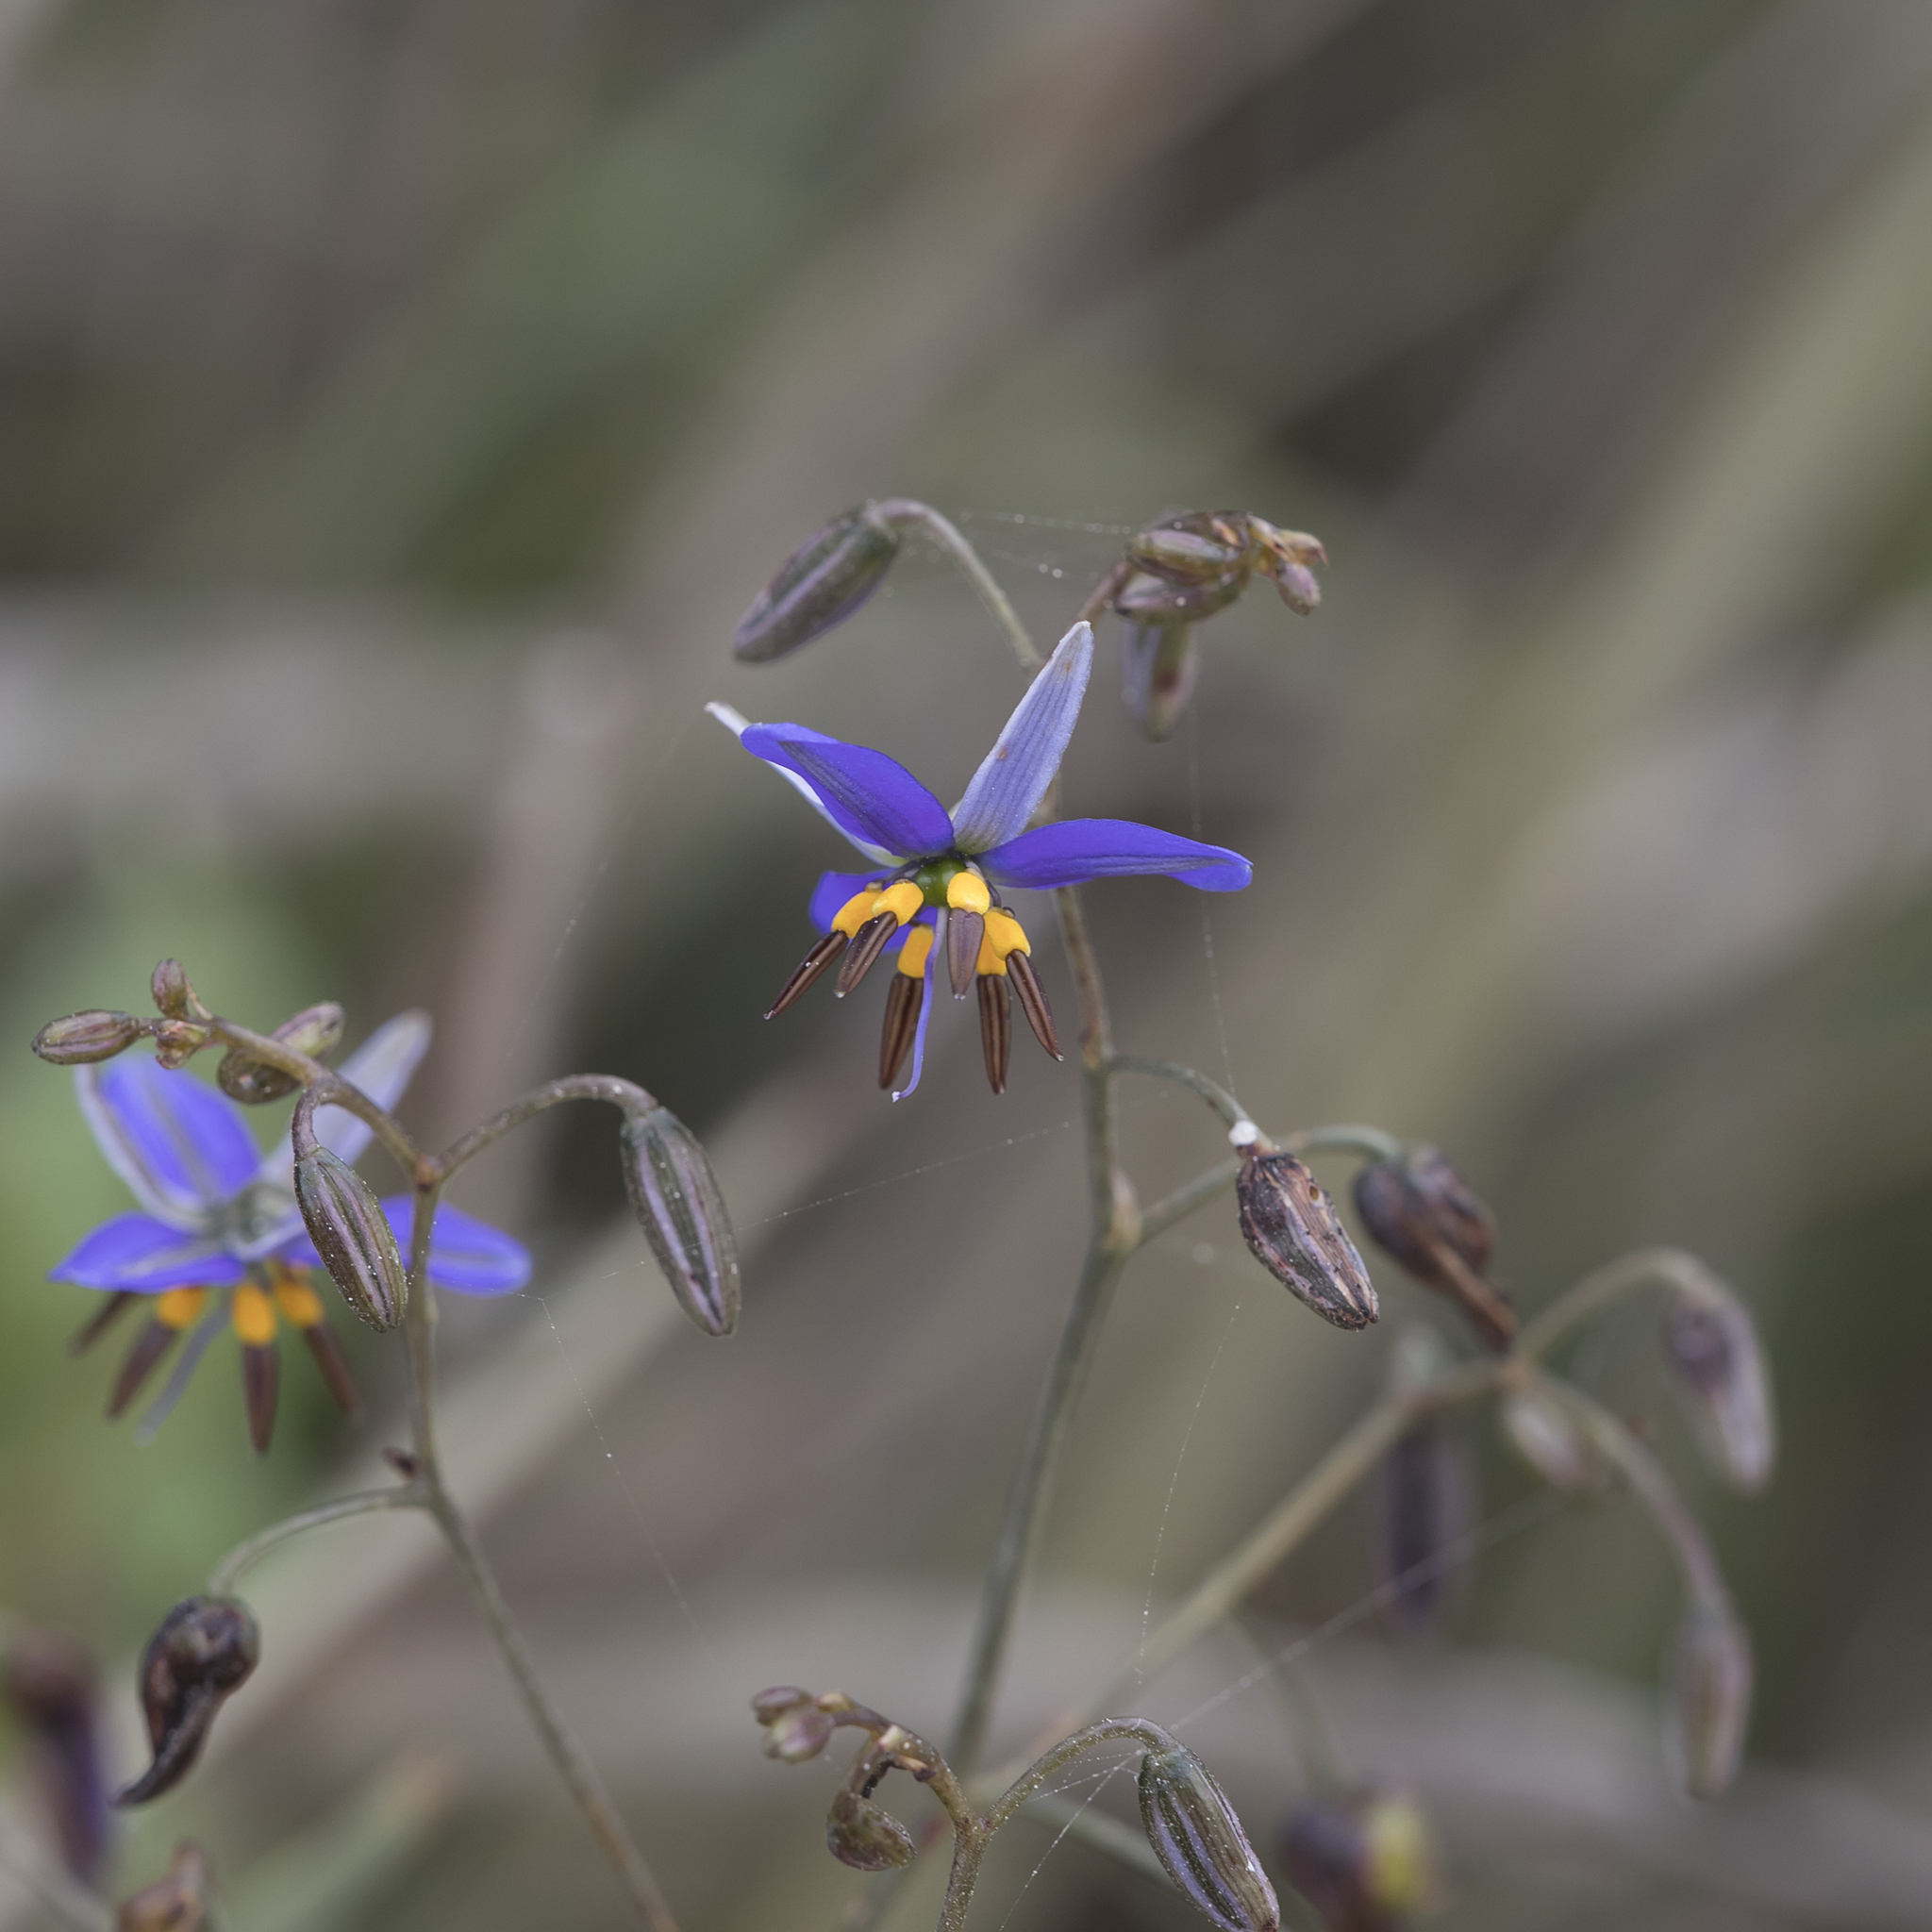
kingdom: Plantae
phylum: Tracheophyta
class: Liliopsida
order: Asparagales
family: Asphodelaceae
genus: Dianella
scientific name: Dianella revoluta
